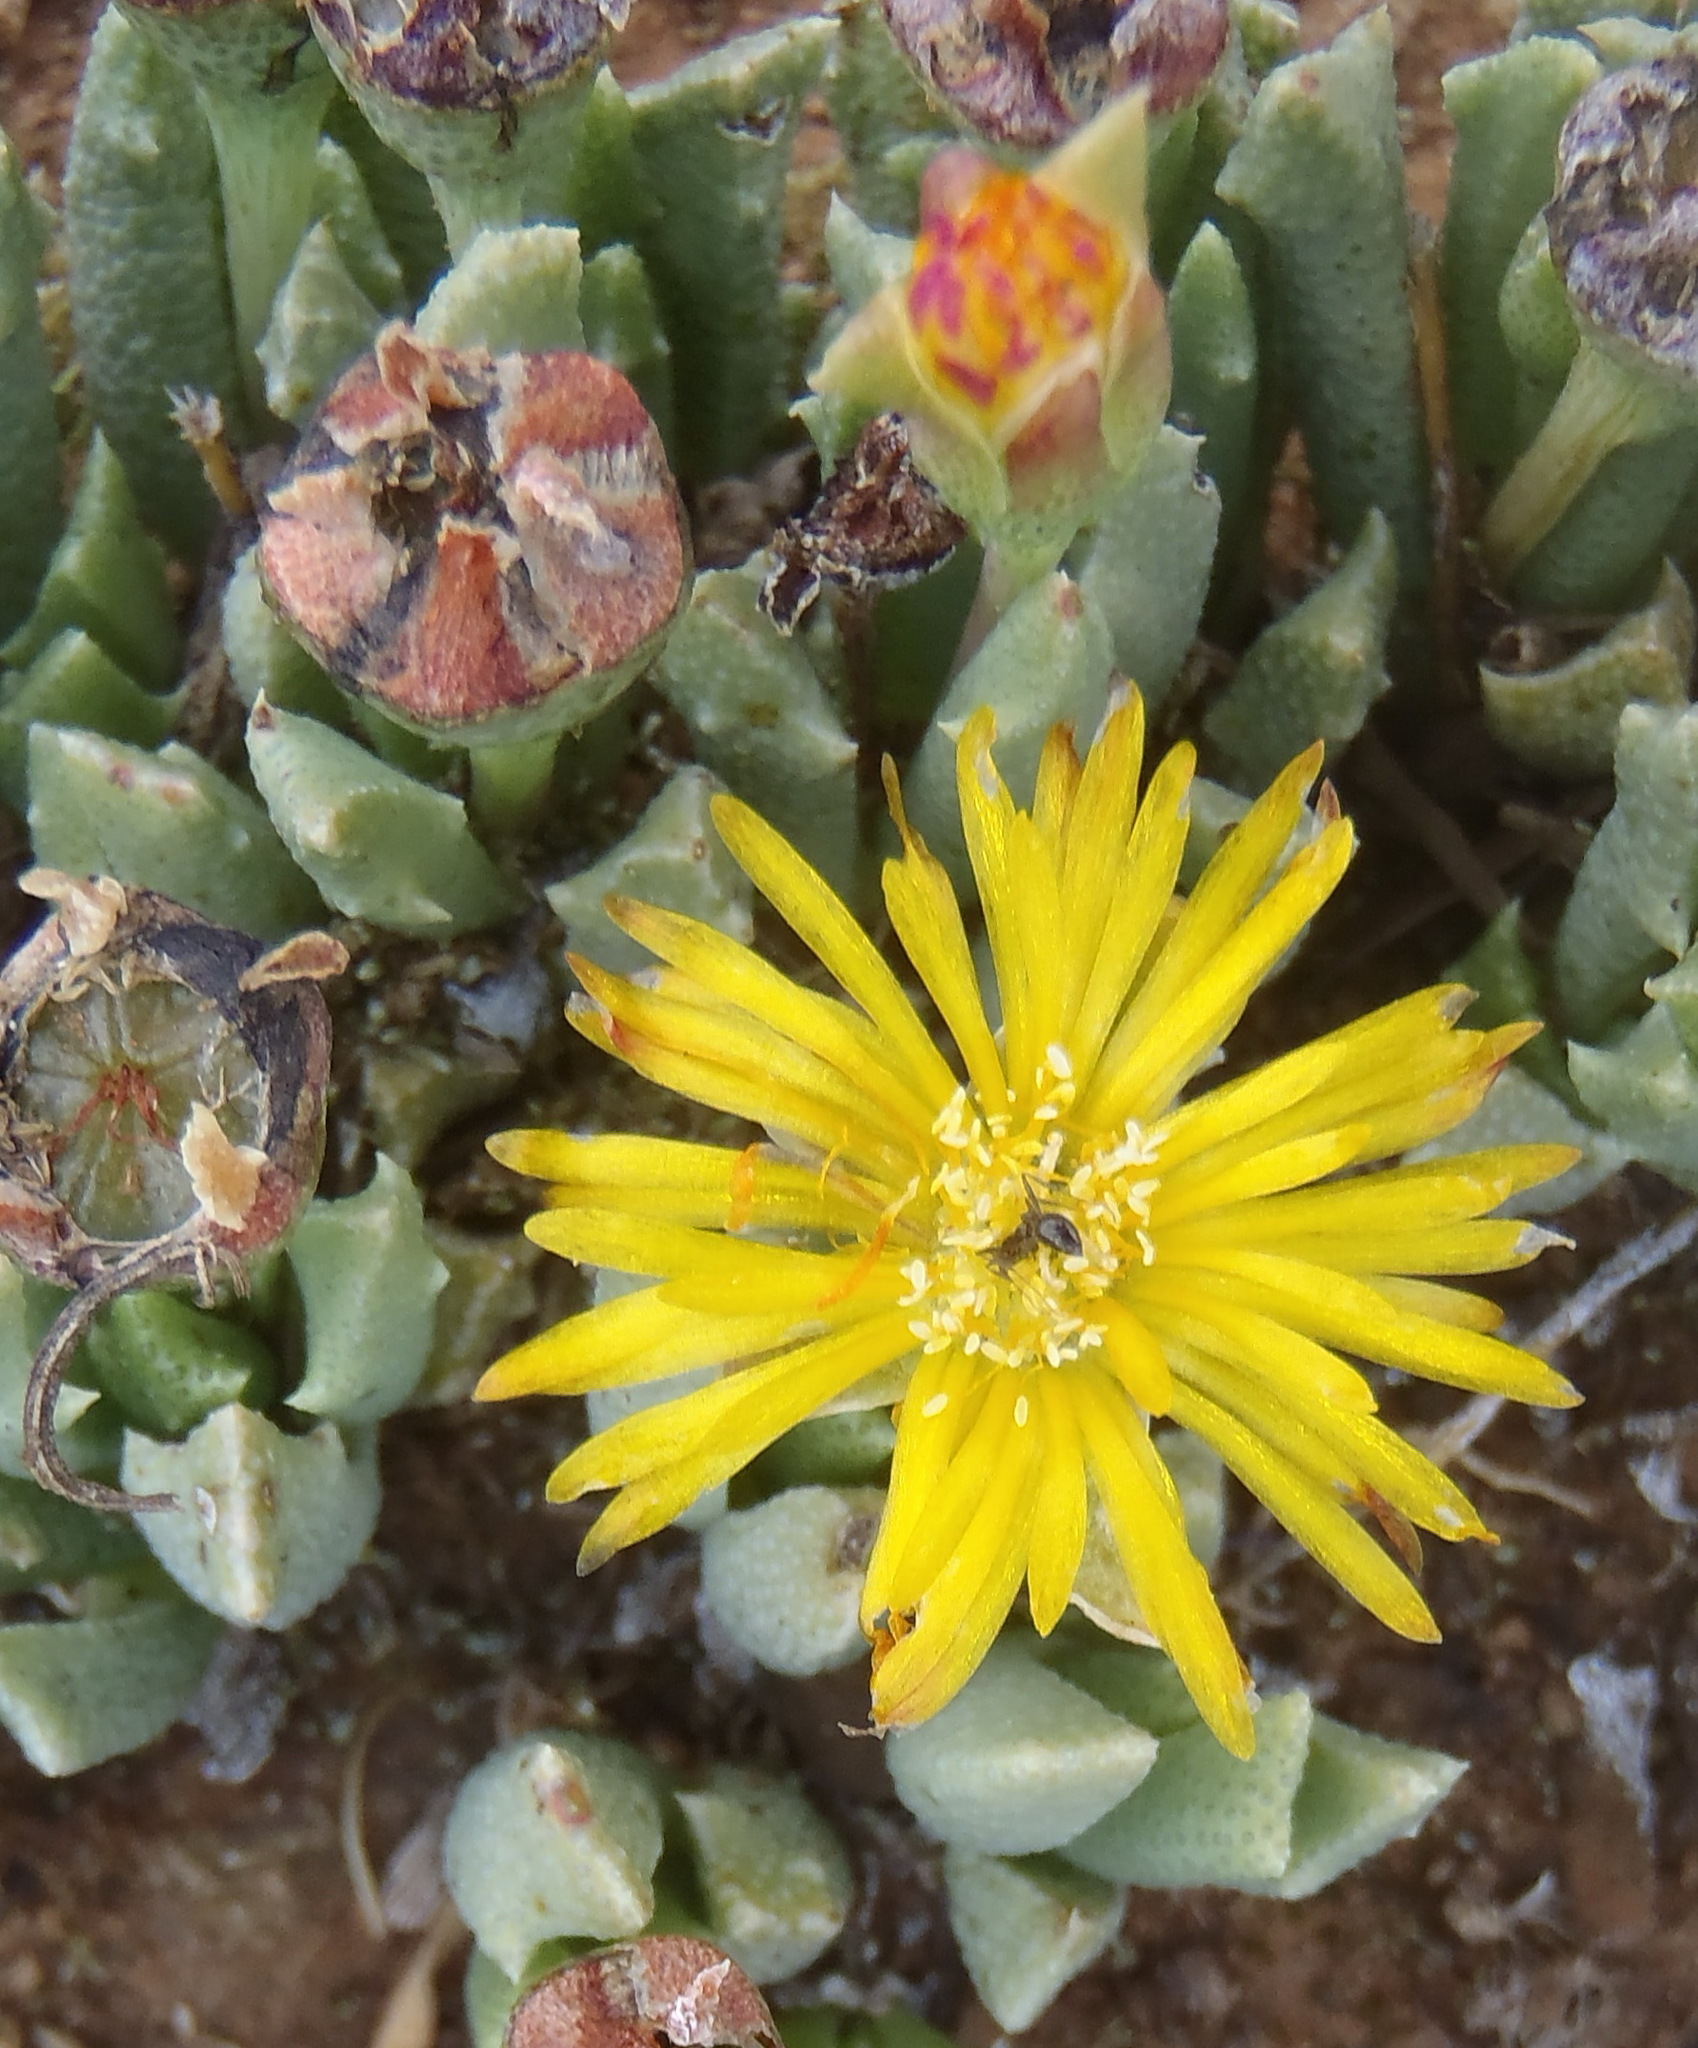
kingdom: Plantae
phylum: Tracheophyta
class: Magnoliopsida
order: Caryophyllales
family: Aizoaceae
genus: Dracophilus
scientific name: Dracophilus Chasmatophyllum musculinum
